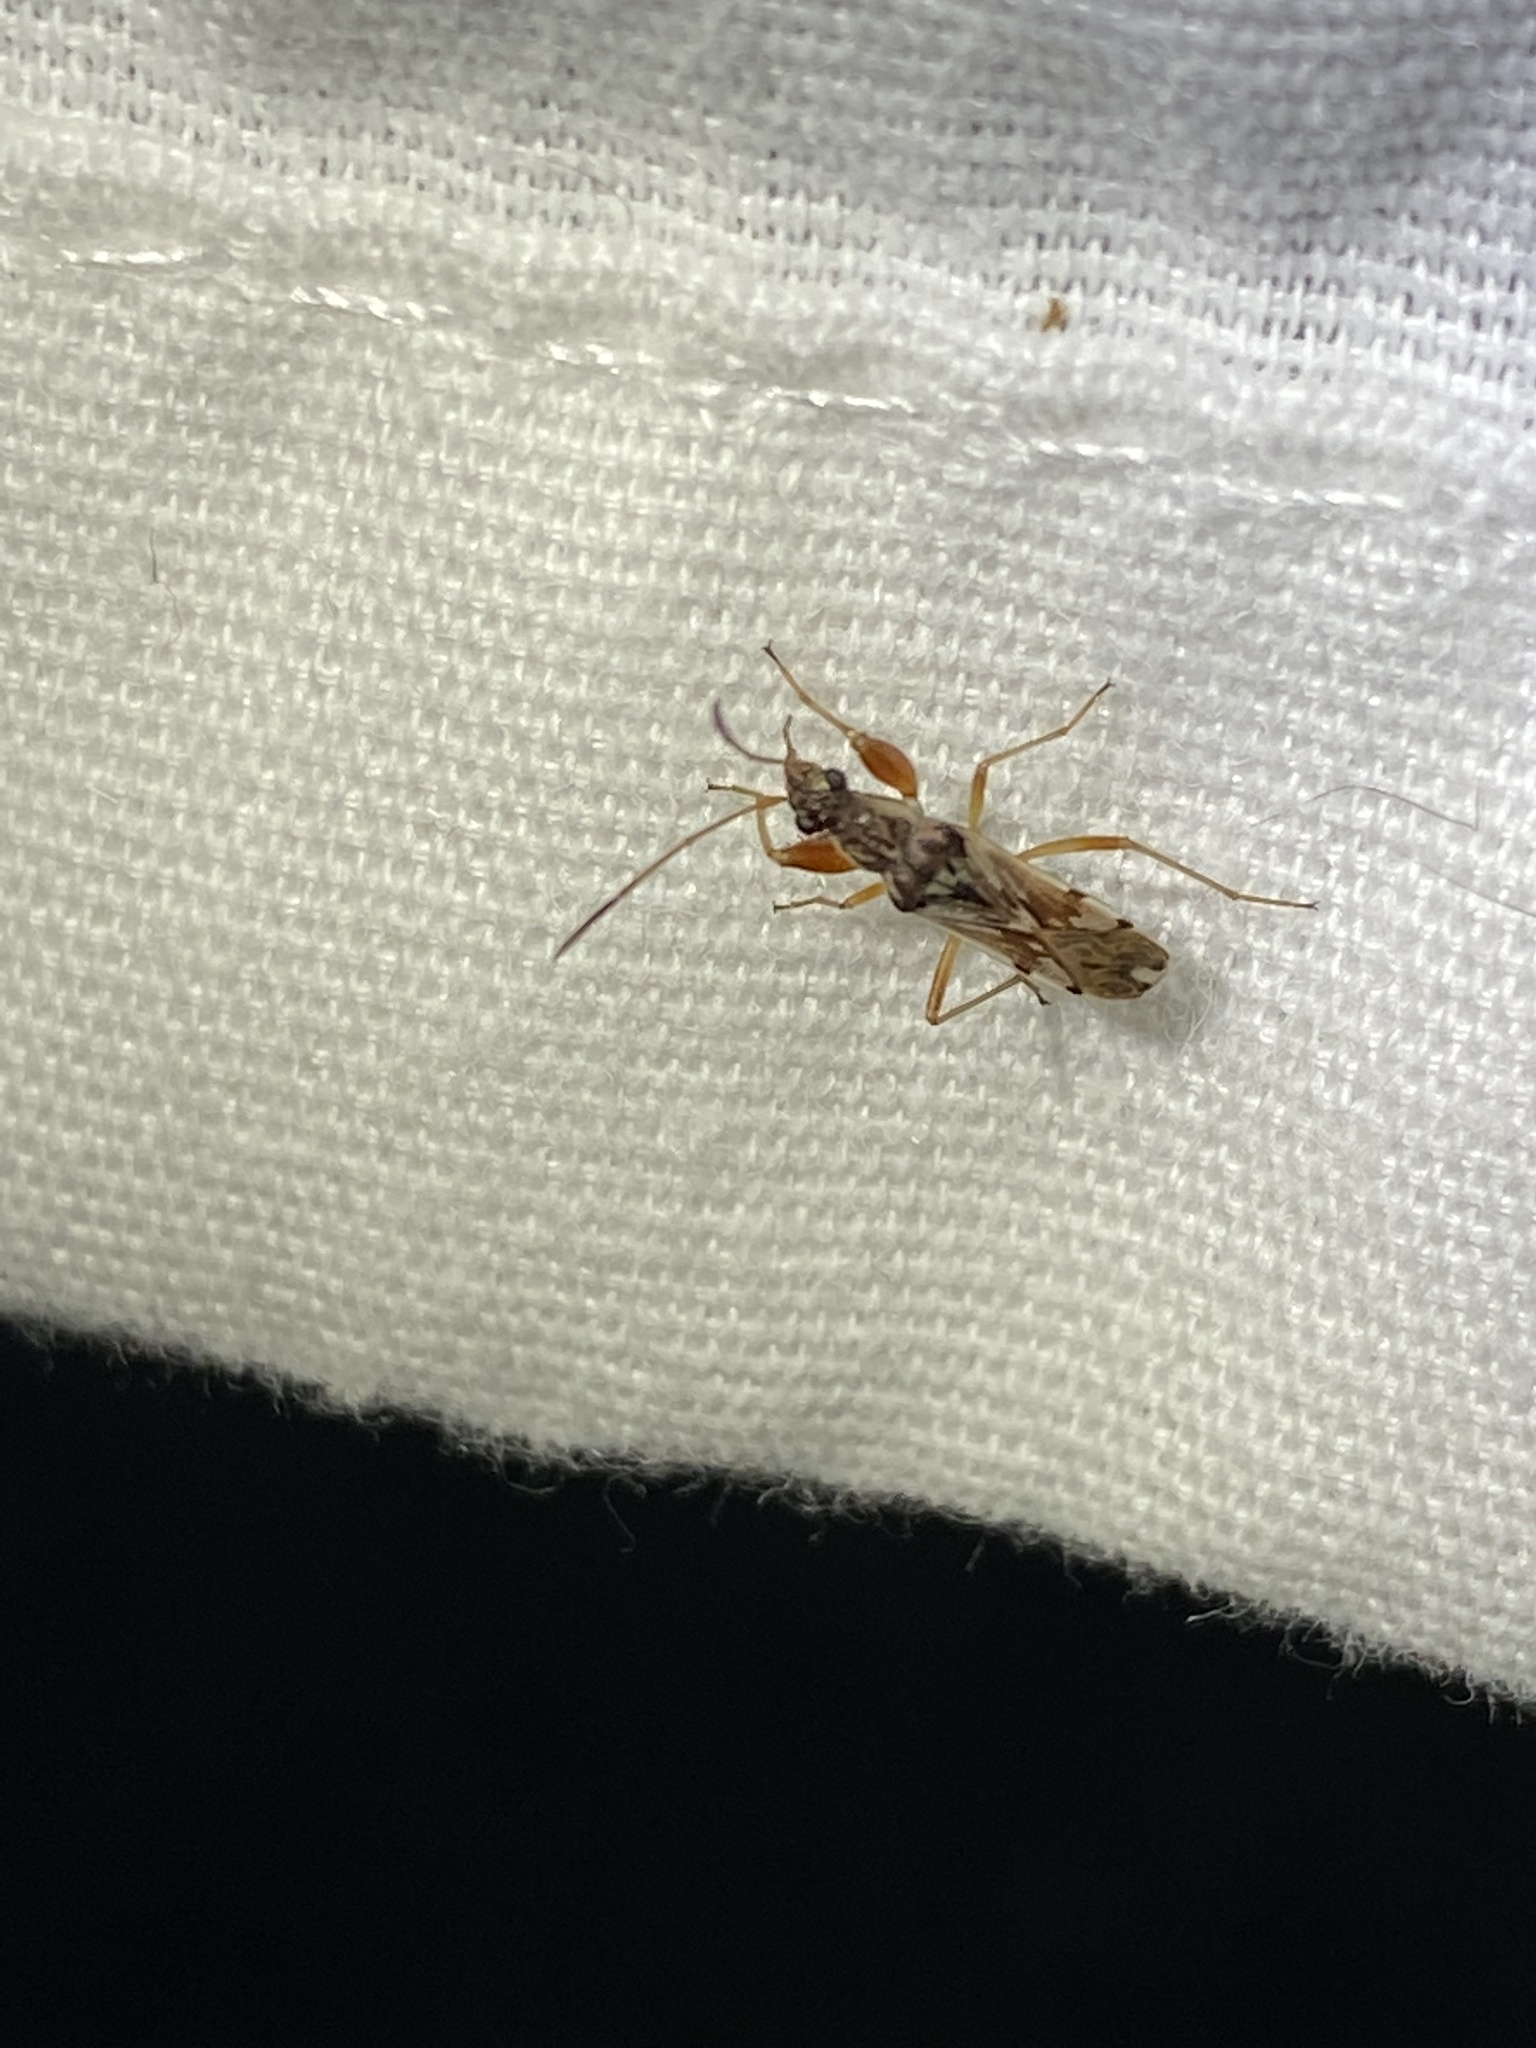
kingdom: Animalia
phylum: Arthropoda
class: Insecta
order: Hemiptera
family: Rhyparochromidae
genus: Neopamera
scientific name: Neopamera bilobata
